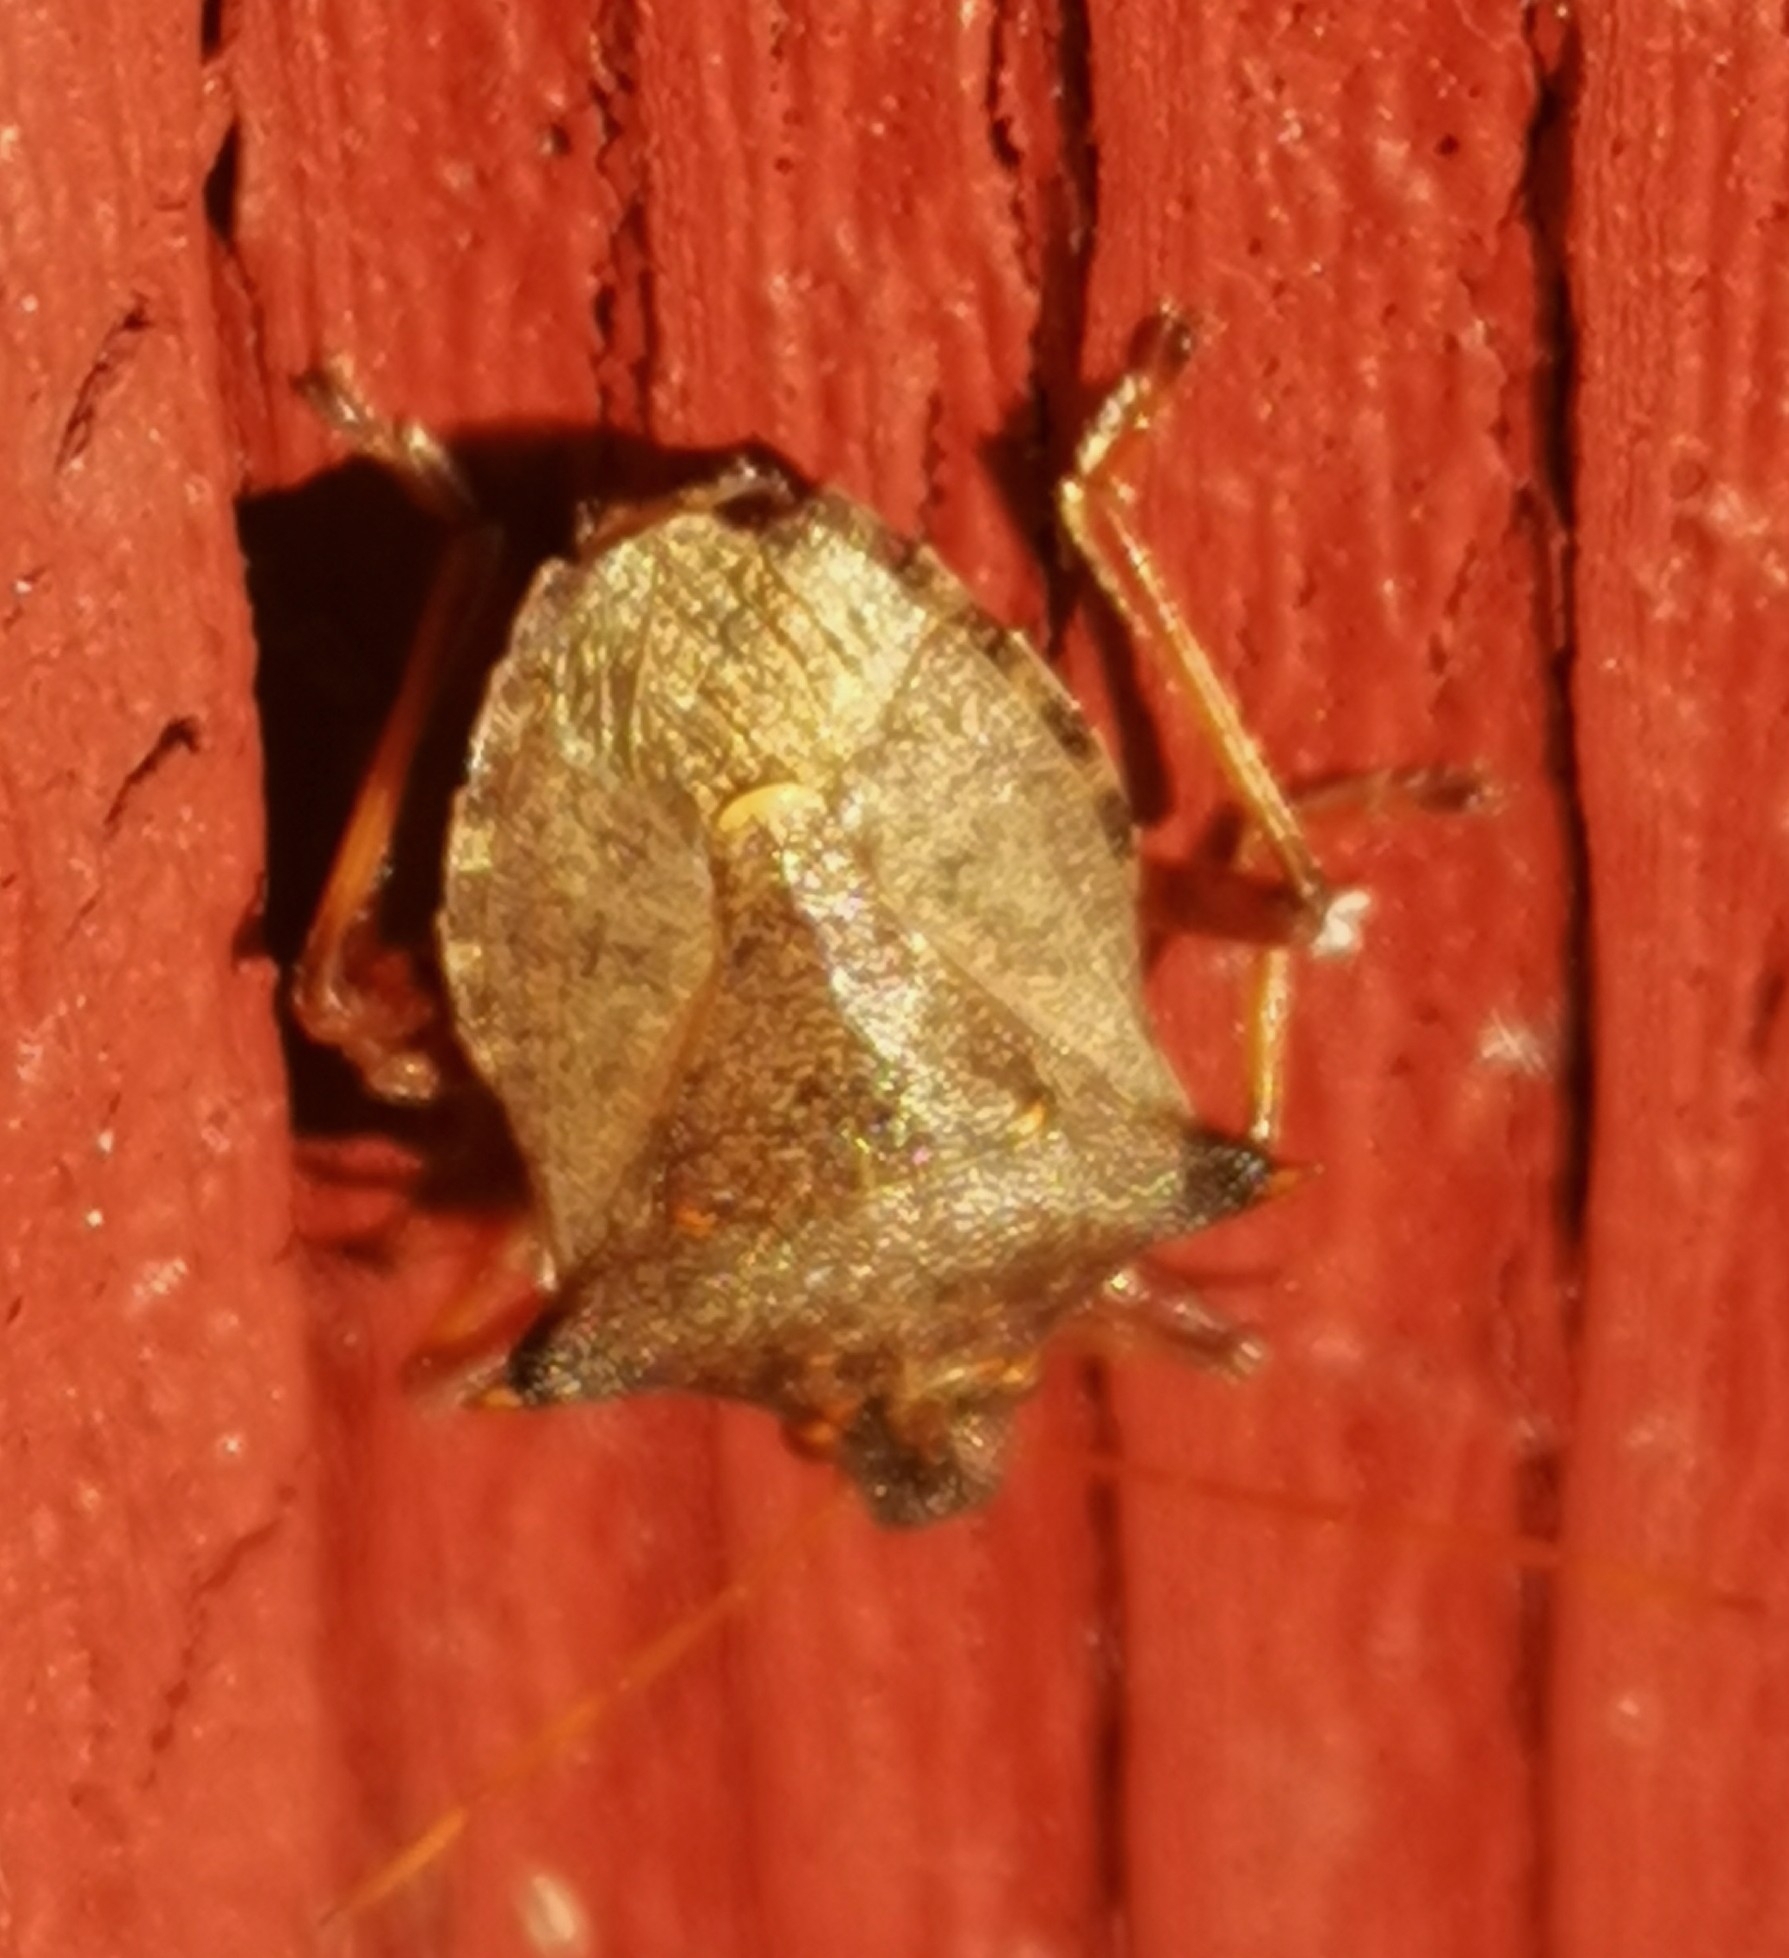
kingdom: Animalia
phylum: Arthropoda
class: Insecta
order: Hemiptera
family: Pentatomidae
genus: Picromerus
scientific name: Picromerus bidens
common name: Spiked shieldbug
